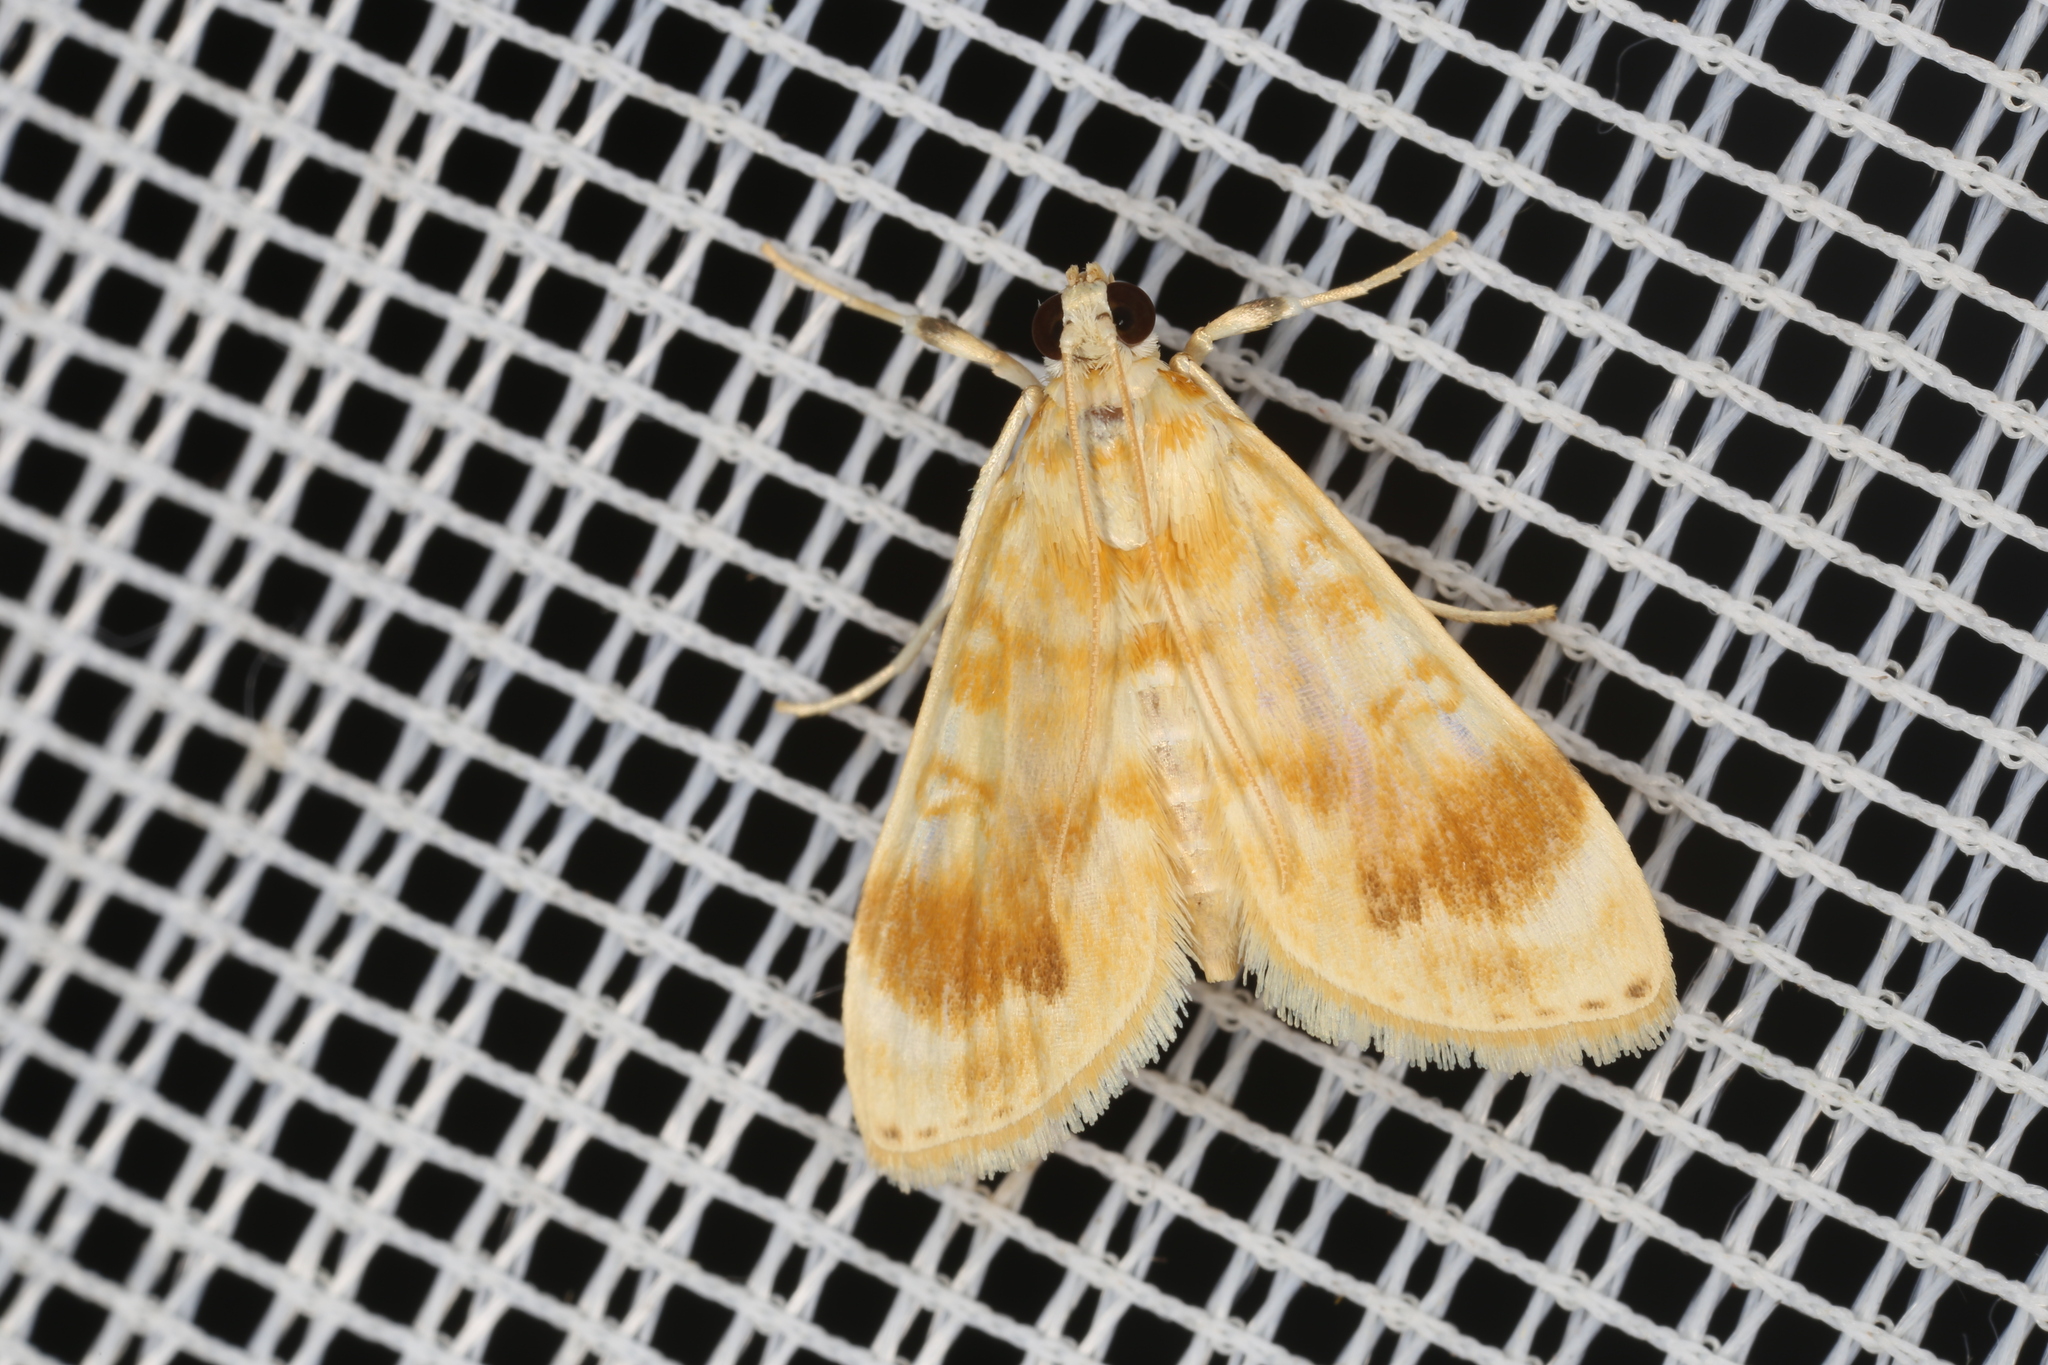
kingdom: Animalia
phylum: Arthropoda
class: Insecta
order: Lepidoptera
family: Crambidae
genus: Lamprosema
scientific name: Lamprosema excurvalis
